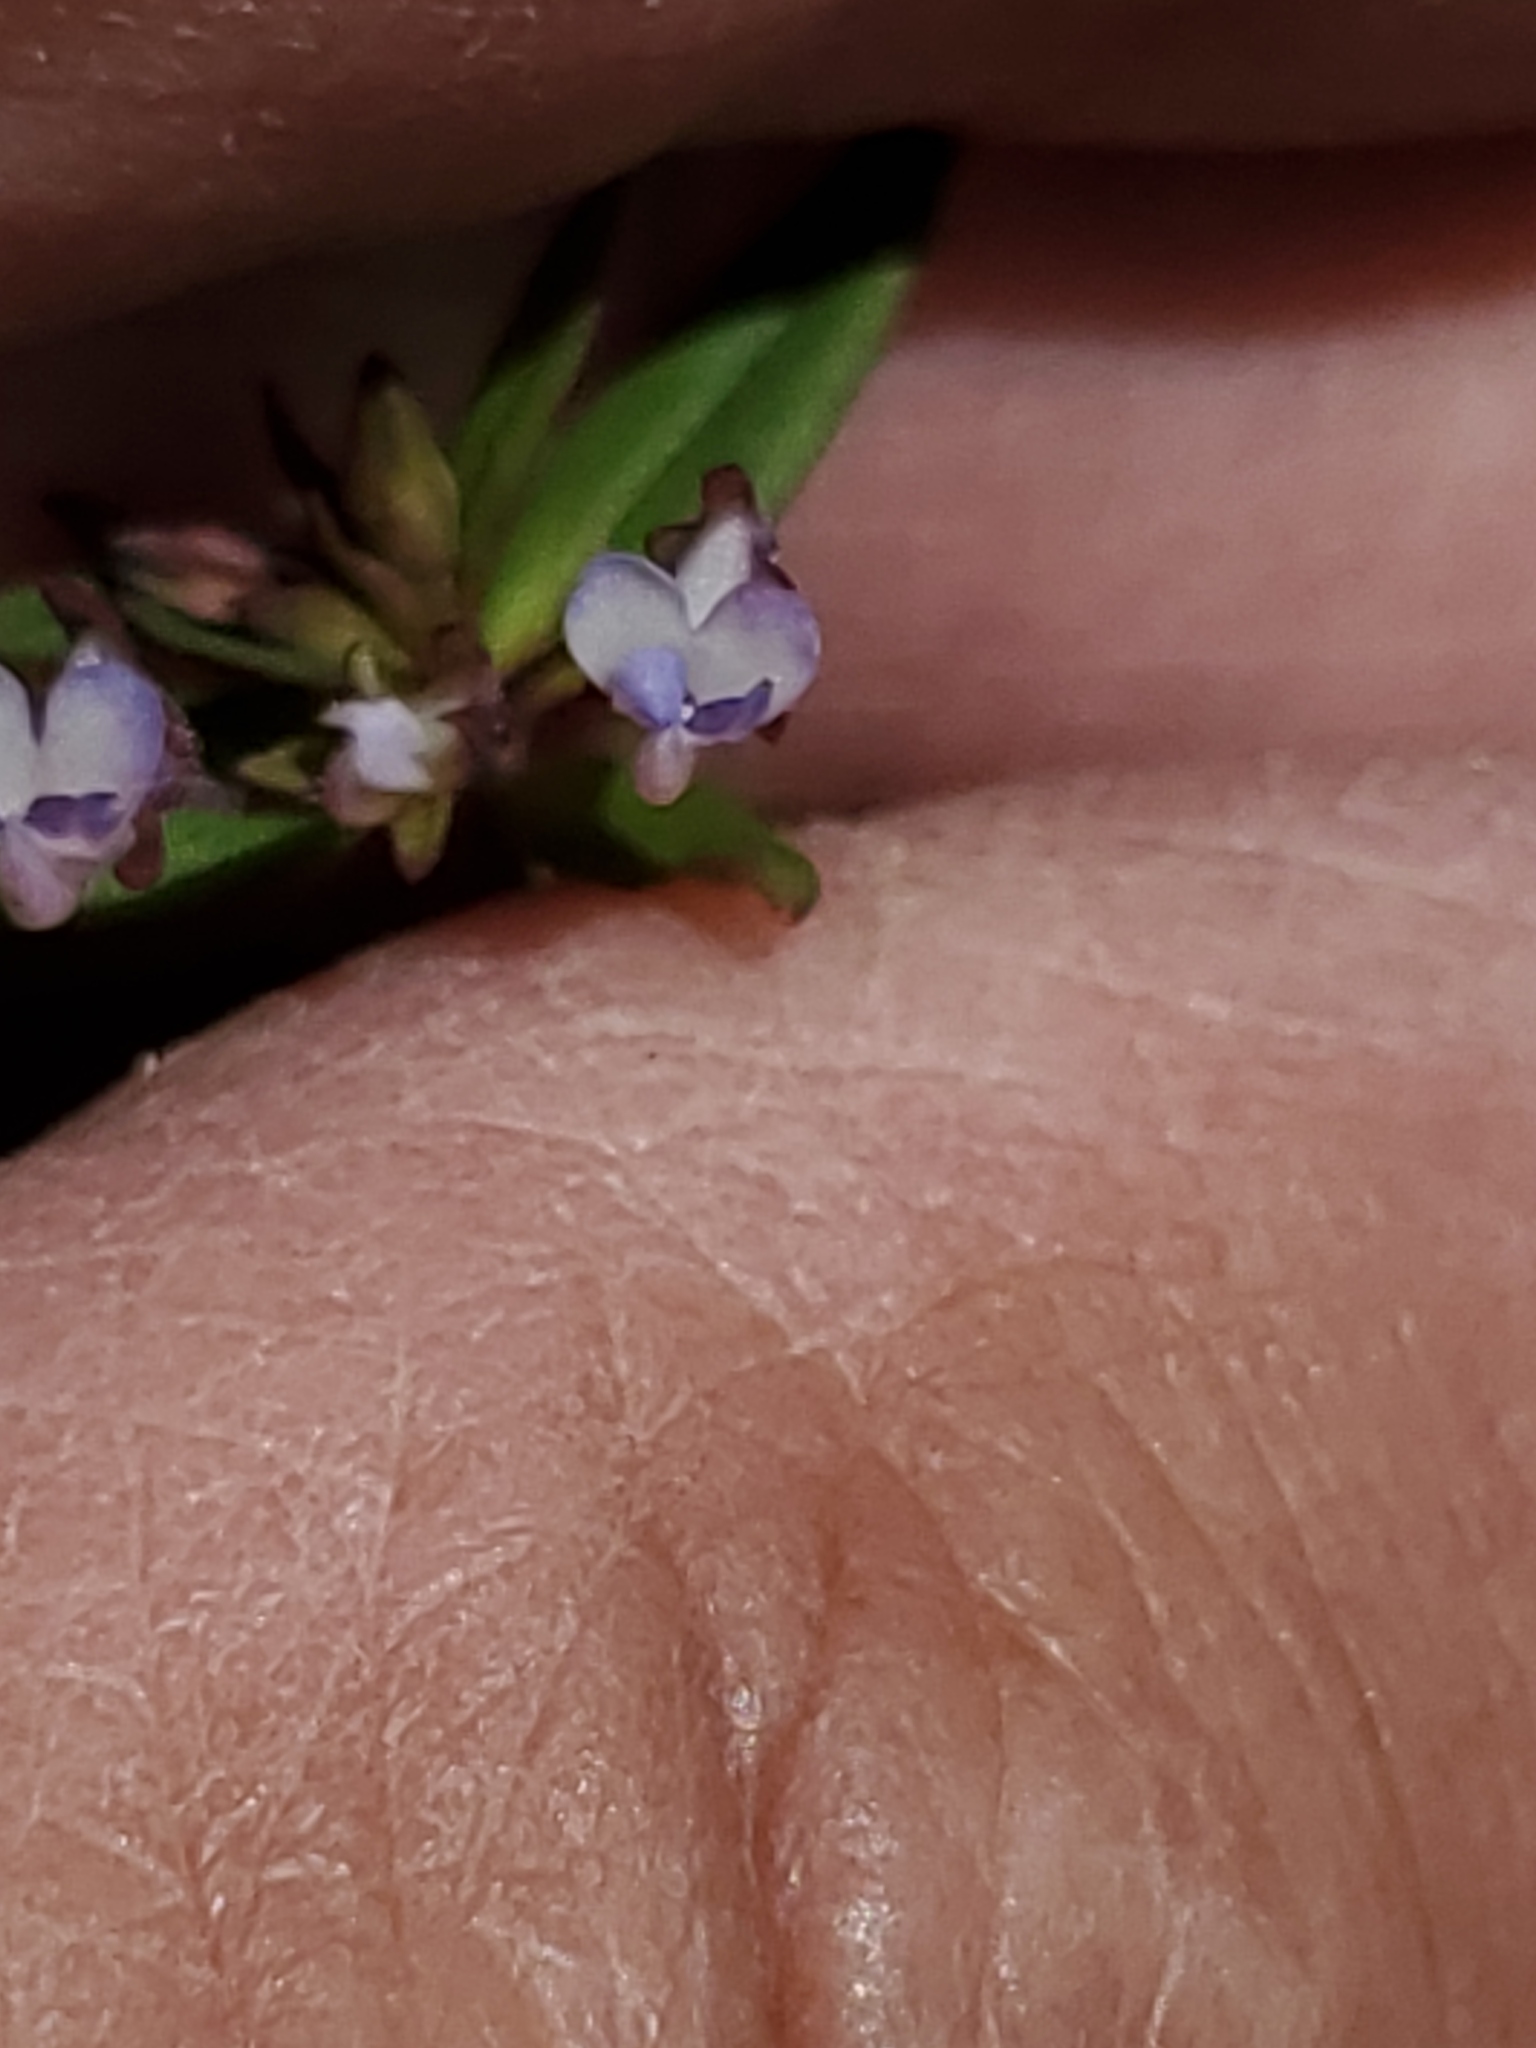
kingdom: Plantae
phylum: Tracheophyta
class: Magnoliopsida
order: Lamiales
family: Plantaginaceae
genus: Collinsia
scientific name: Collinsia parviflora
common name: Blue-lips
